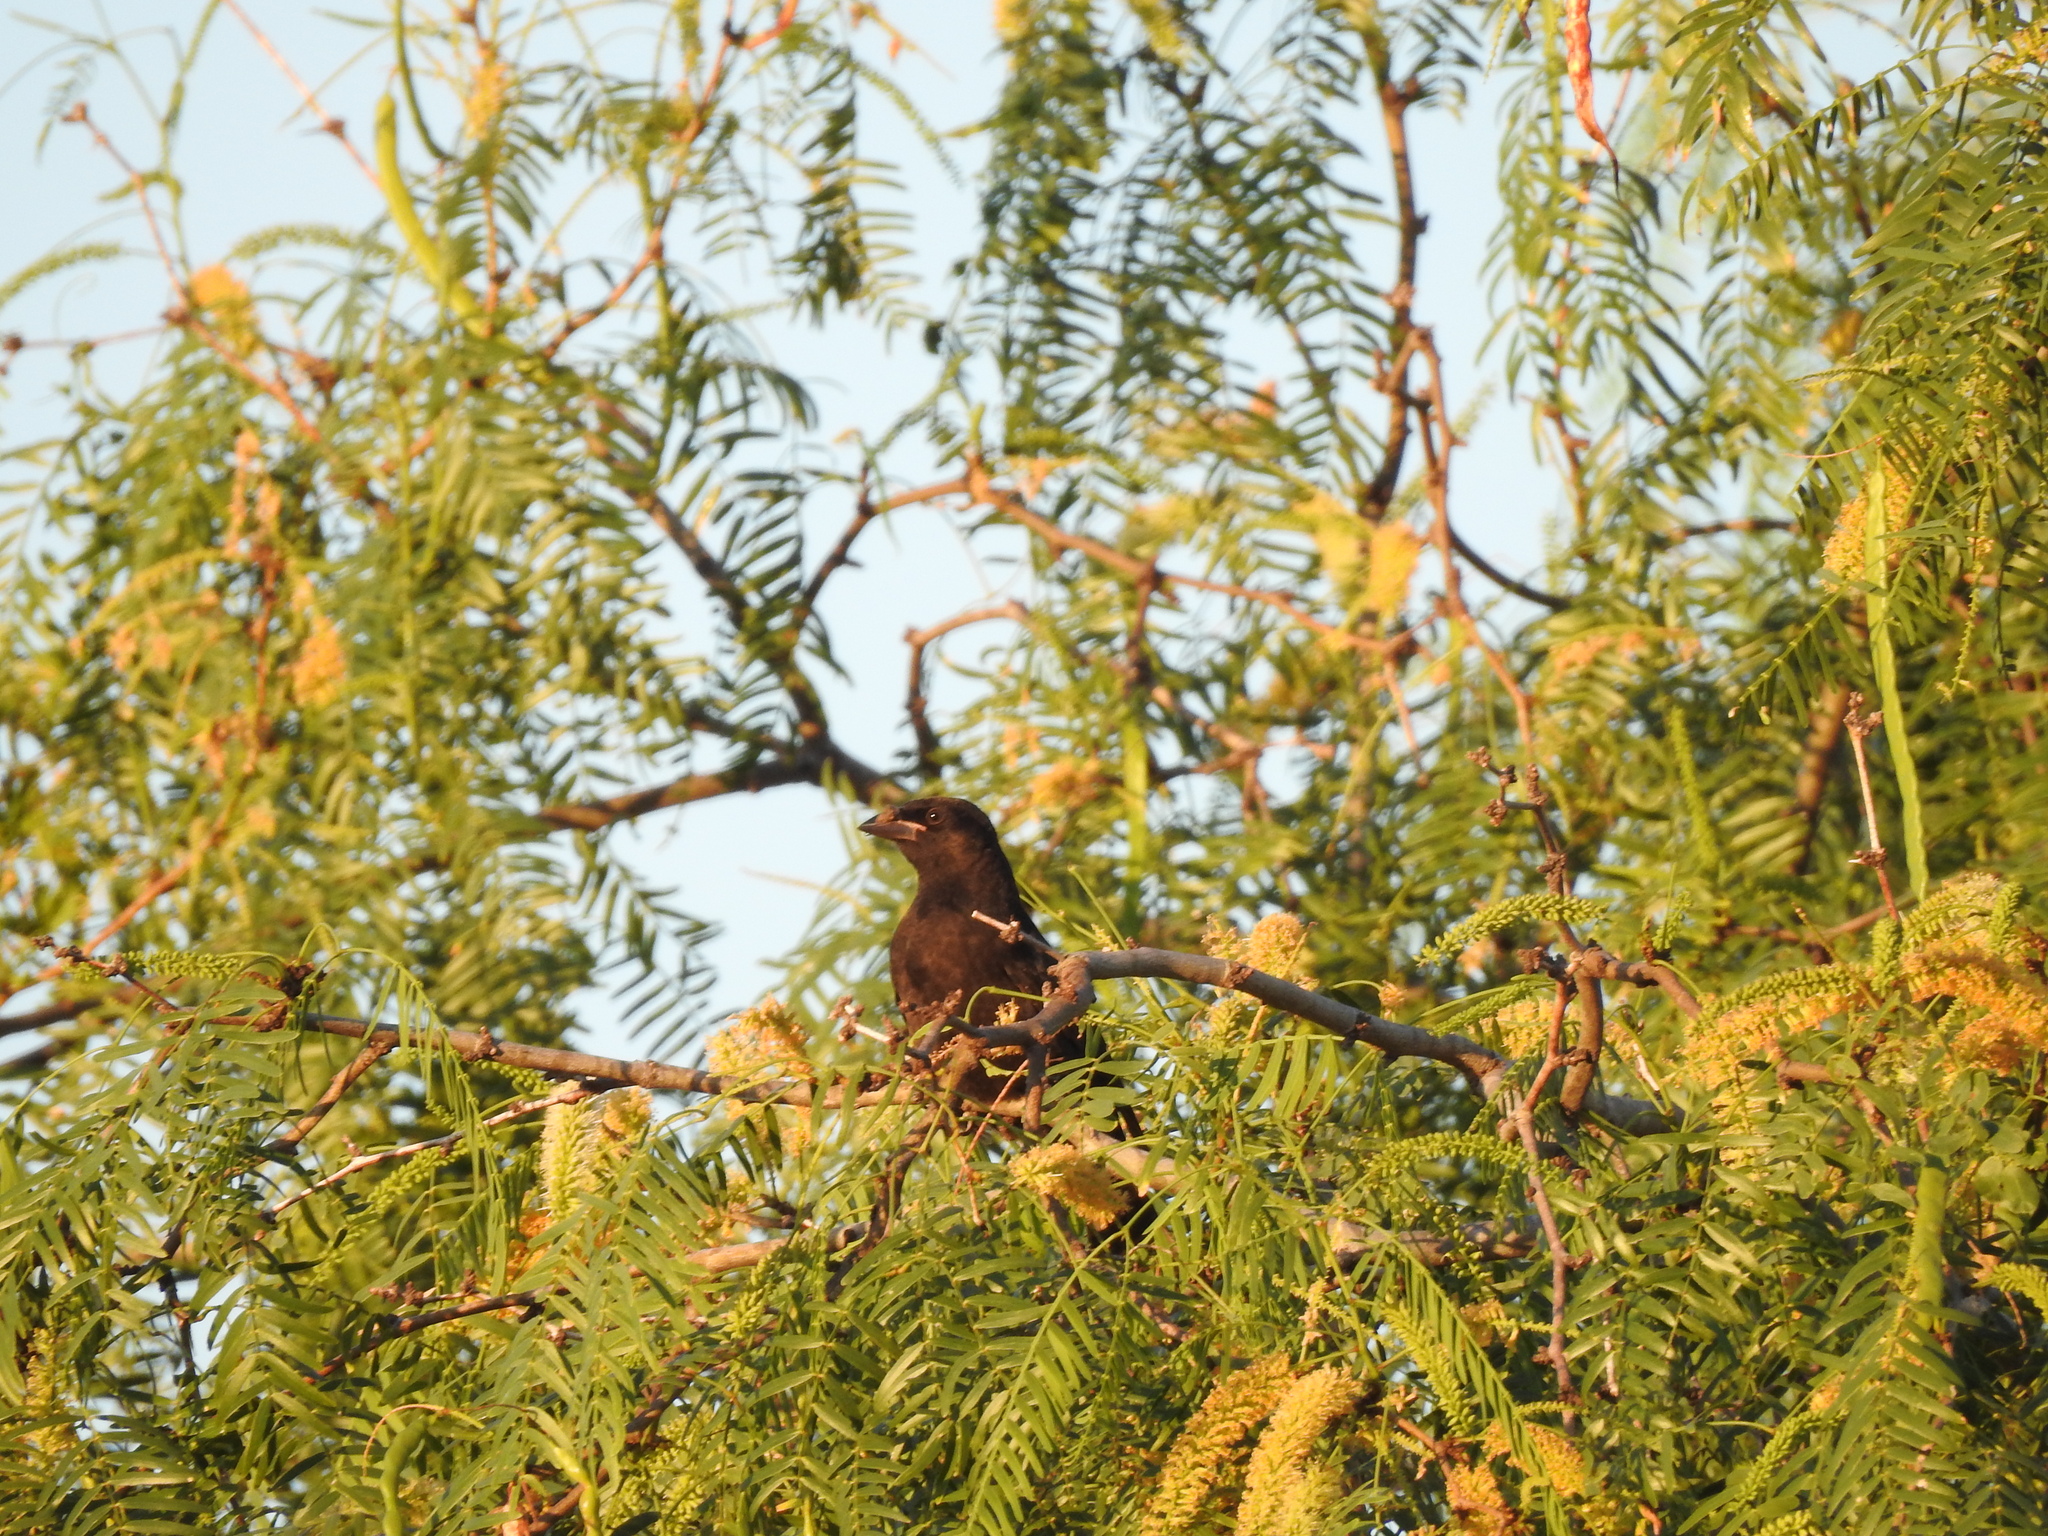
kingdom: Animalia
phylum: Chordata
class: Aves
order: Passeriformes
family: Icteridae
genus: Molothrus
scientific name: Molothrus aeneus
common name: Bronzed cowbird
